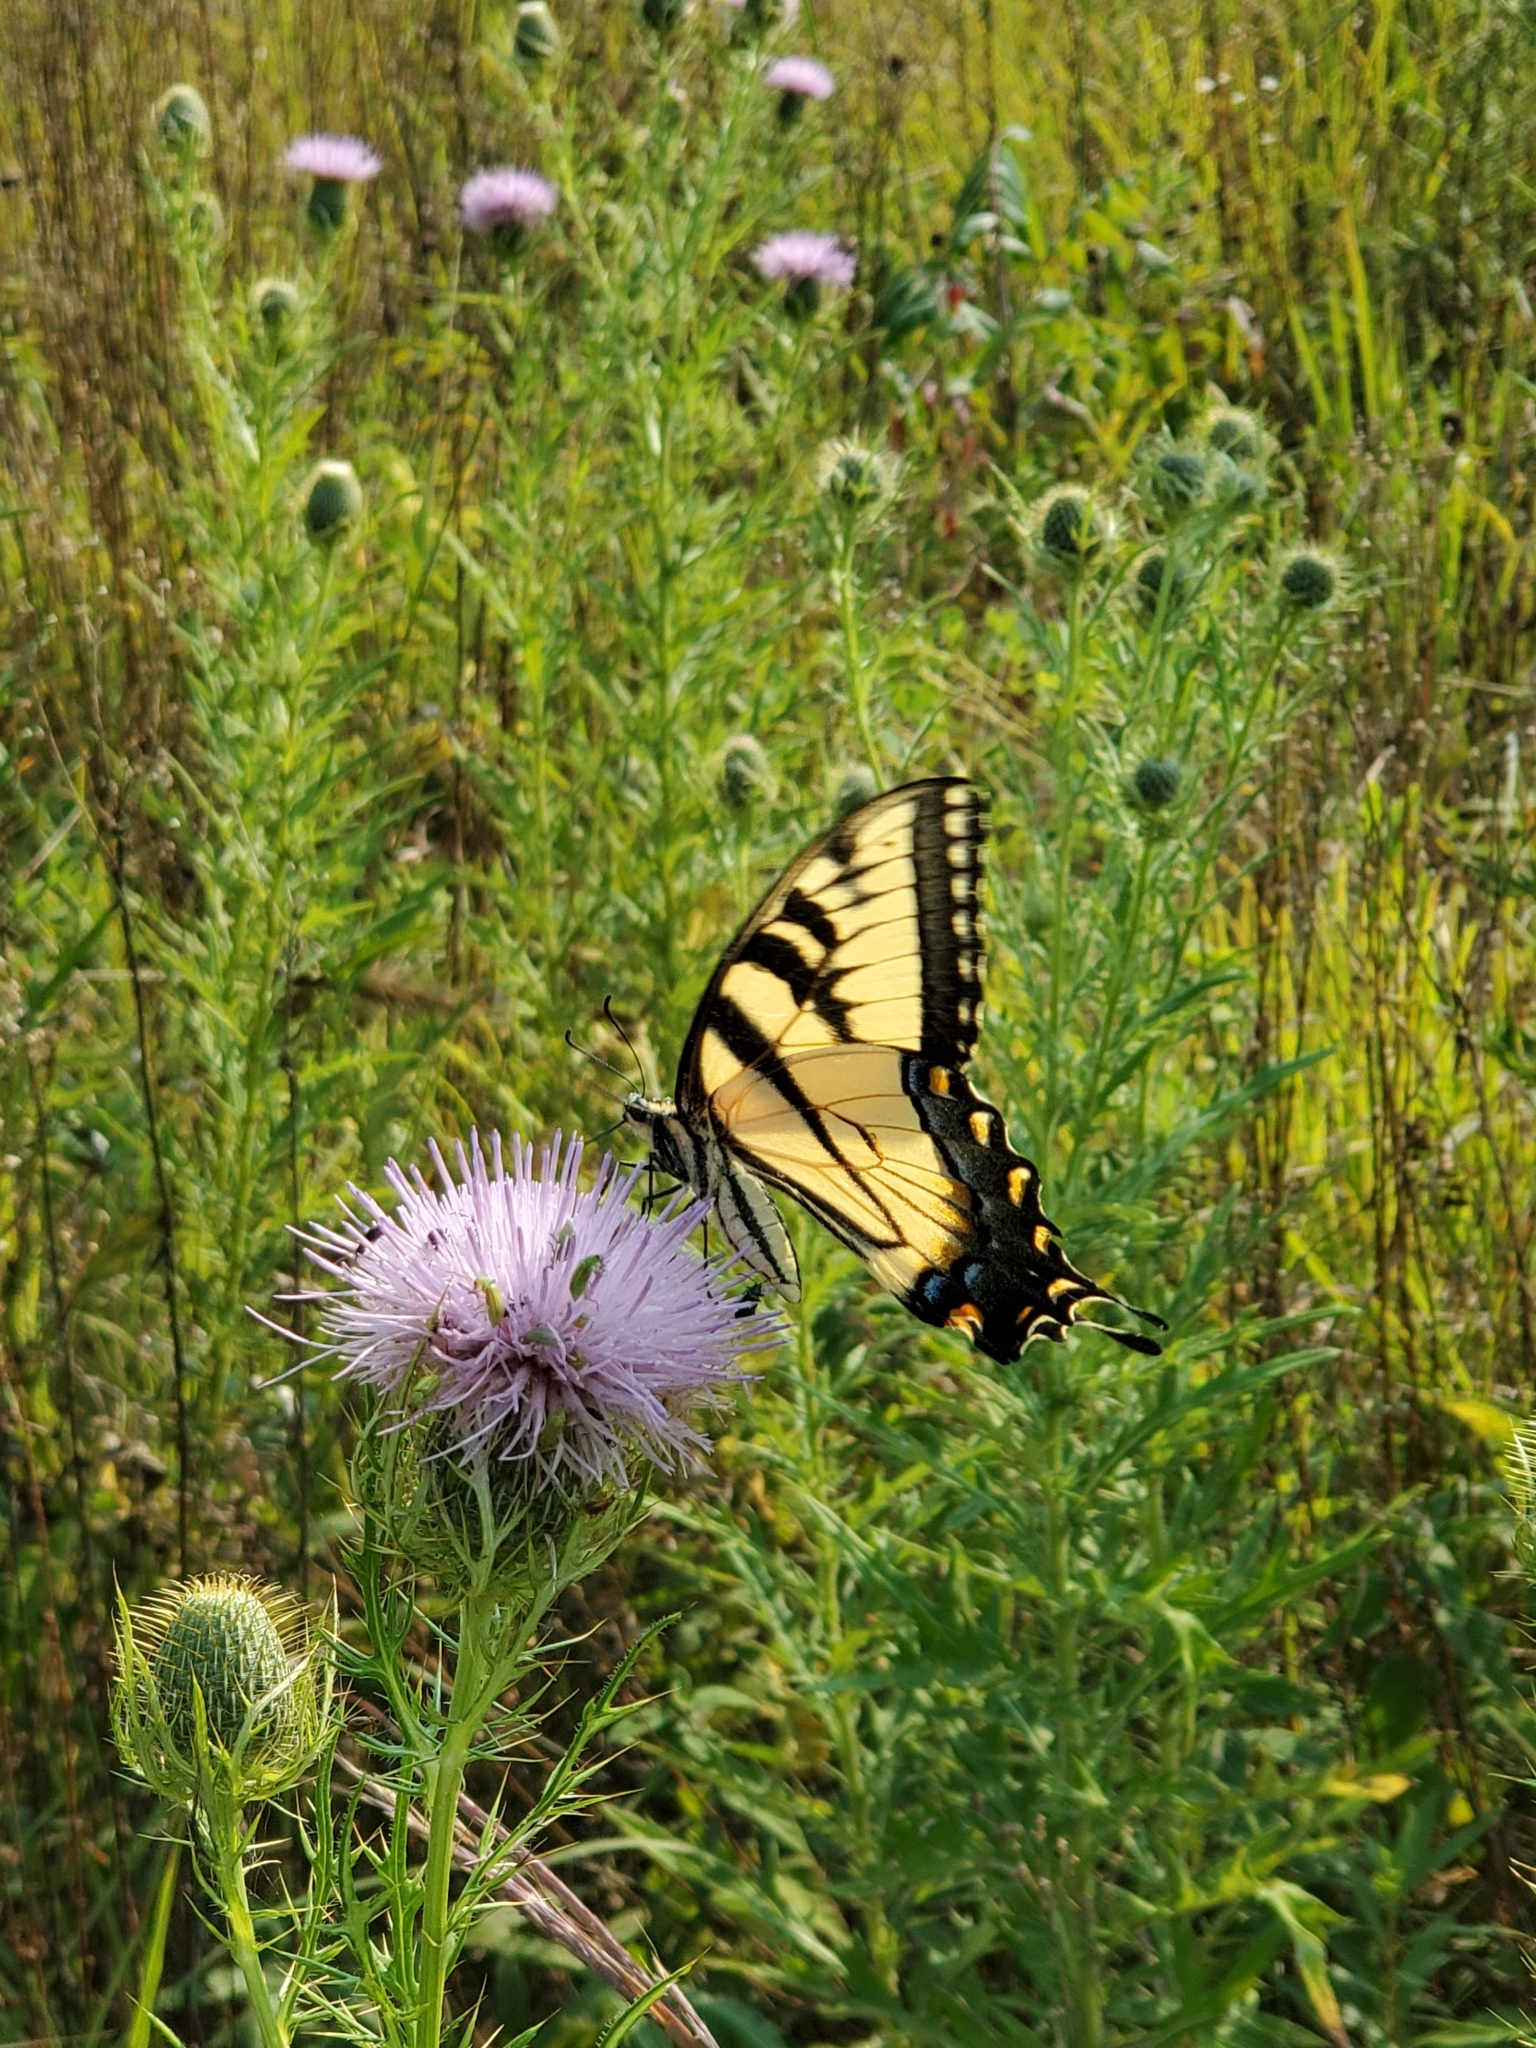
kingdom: Animalia
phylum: Arthropoda
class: Insecta
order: Lepidoptera
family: Papilionidae
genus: Papilio
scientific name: Papilio glaucus
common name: Tiger swallowtail
